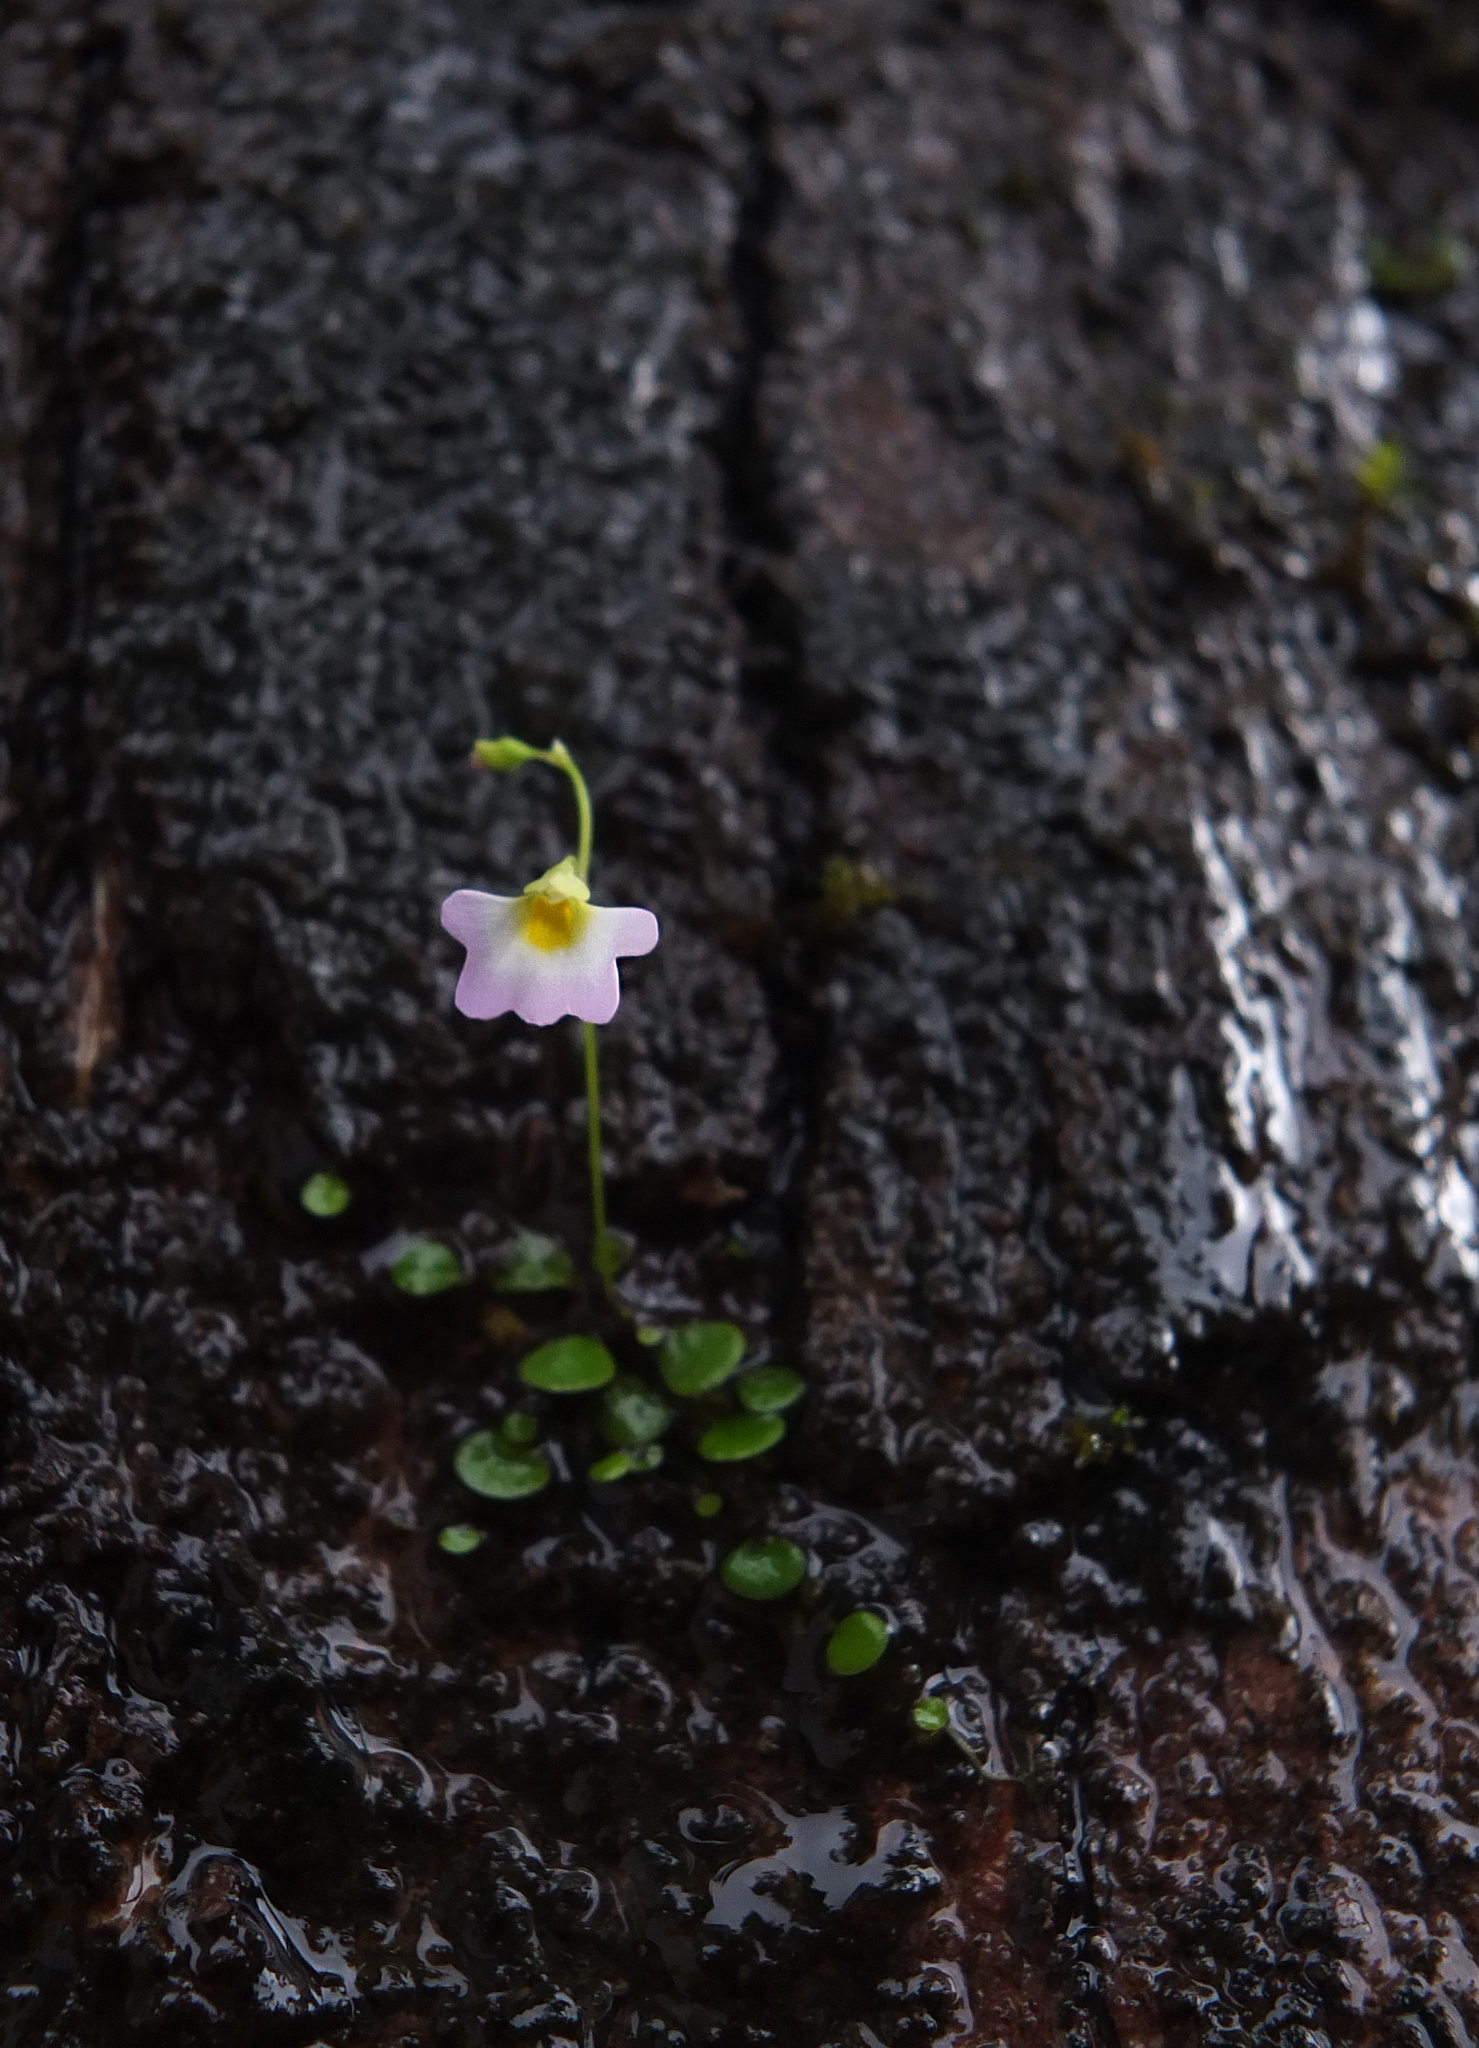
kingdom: Plantae
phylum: Tracheophyta
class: Magnoliopsida
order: Lamiales
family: Lentibulariaceae
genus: Utricularia
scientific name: Utricularia striatula
